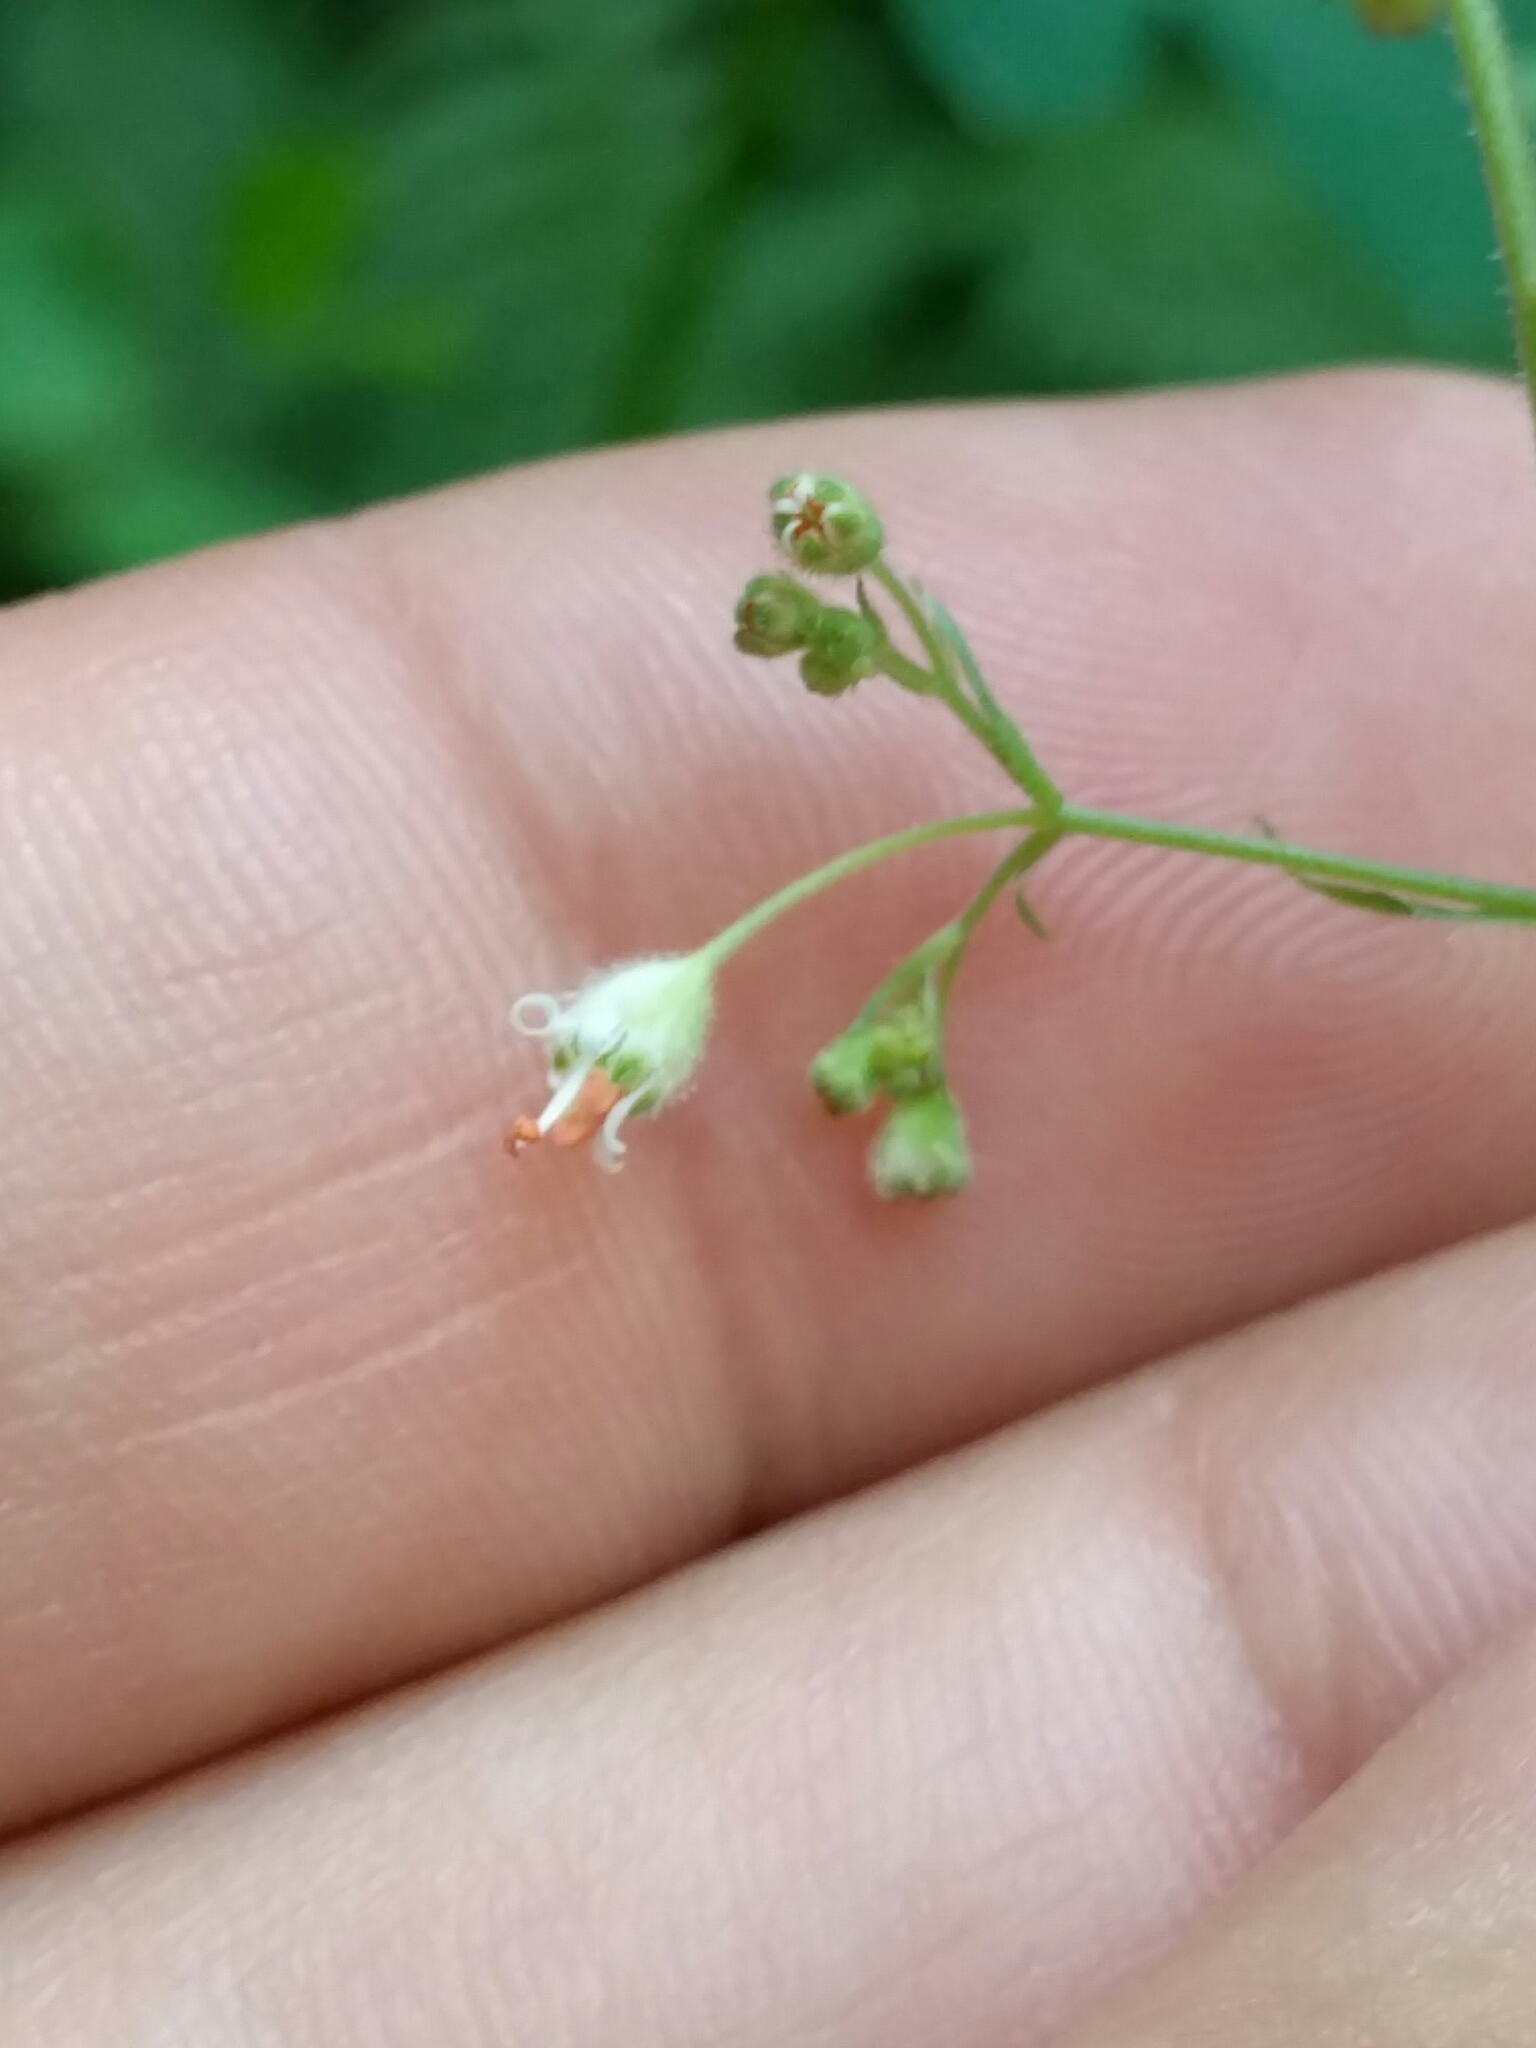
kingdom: Plantae
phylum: Tracheophyta
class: Magnoliopsida
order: Saxifragales
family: Saxifragaceae
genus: Heuchera
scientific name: Heuchera micrantha
